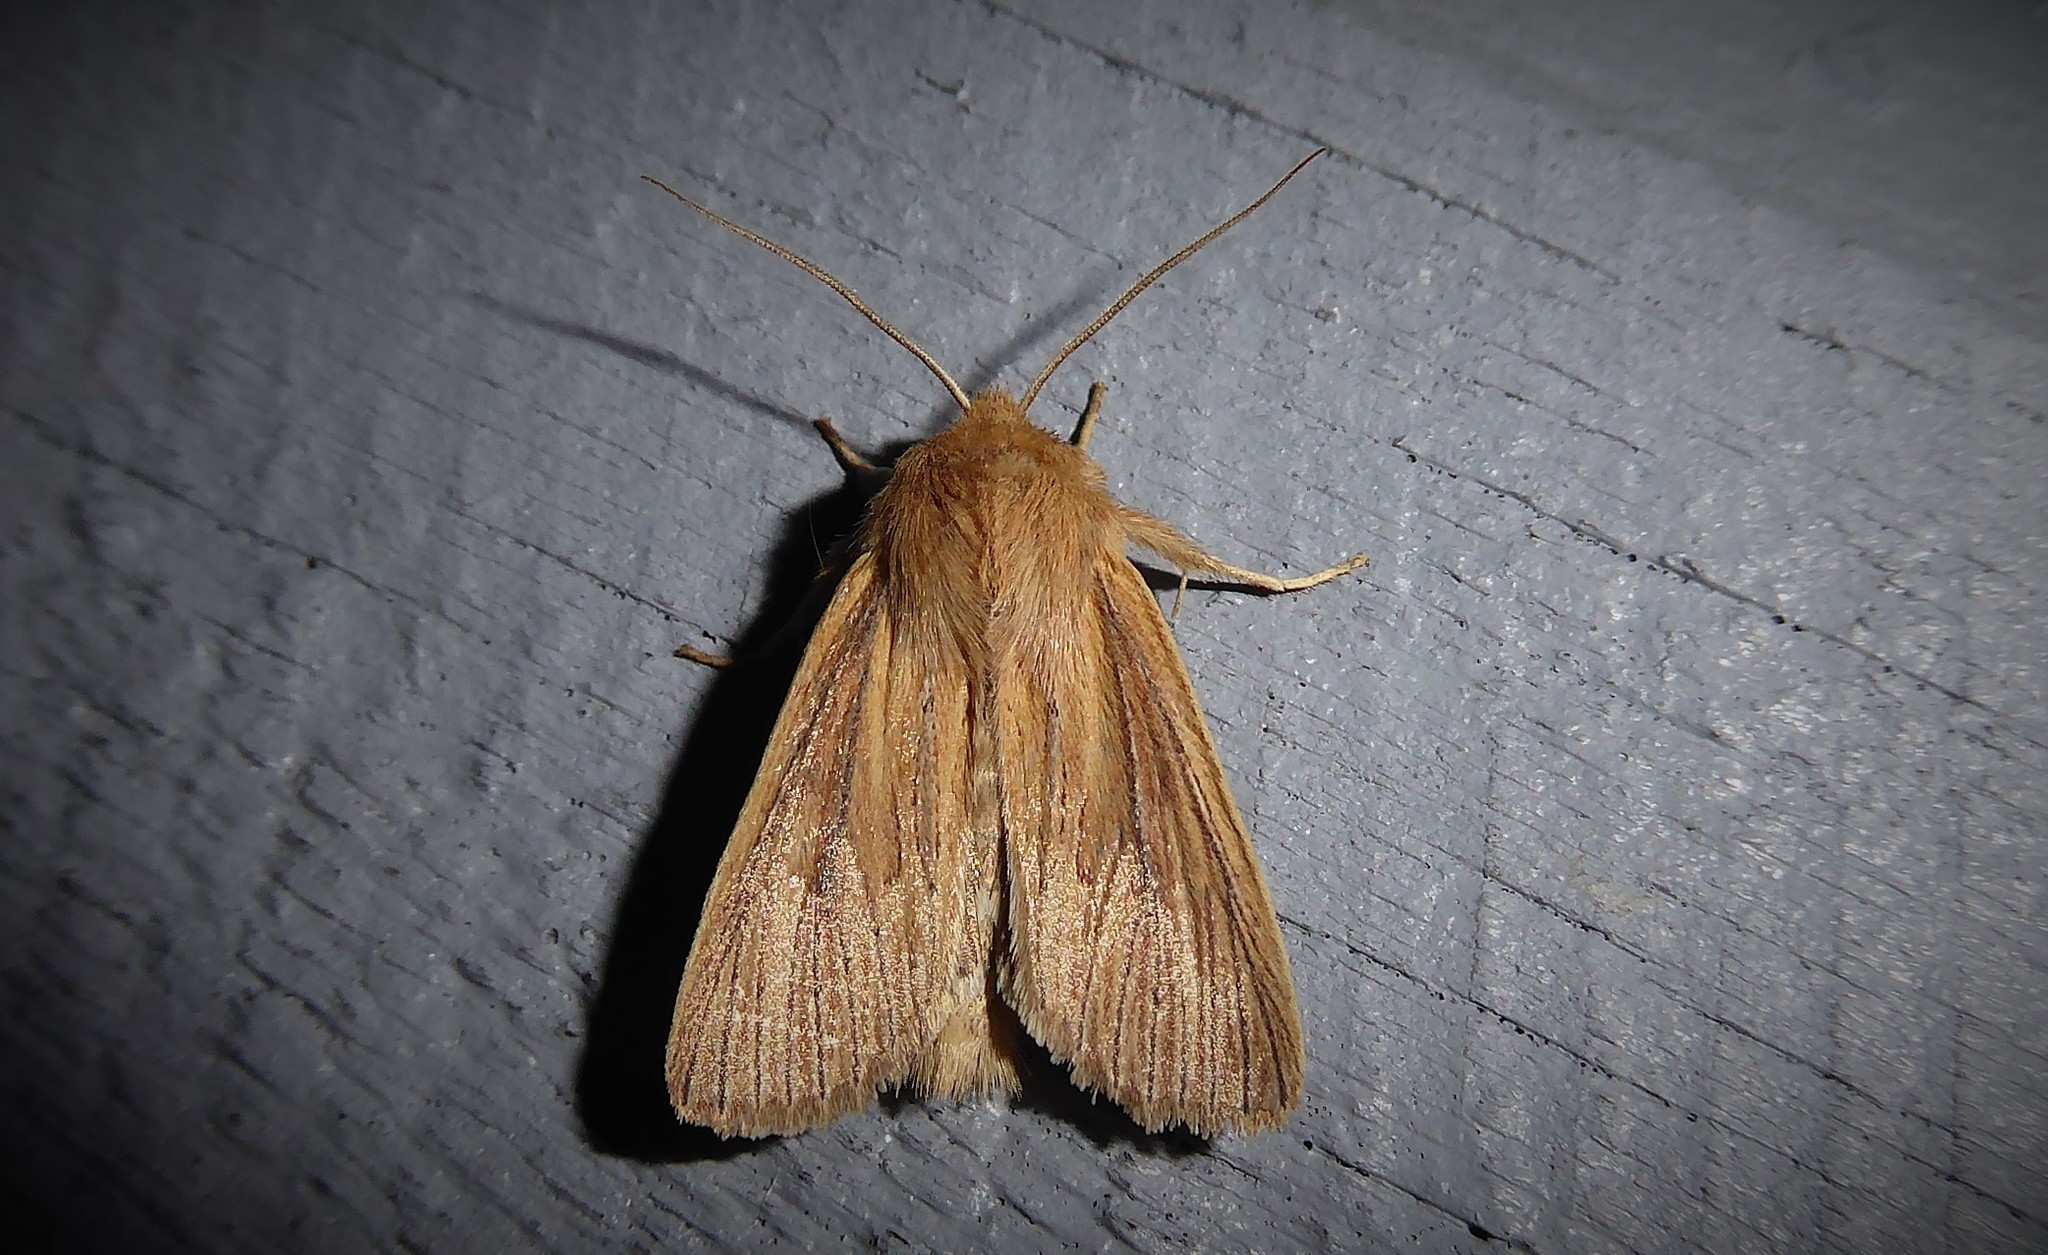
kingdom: Animalia
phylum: Arthropoda
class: Insecta
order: Lepidoptera
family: Noctuidae
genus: Ichneutica
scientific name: Ichneutica arotis
